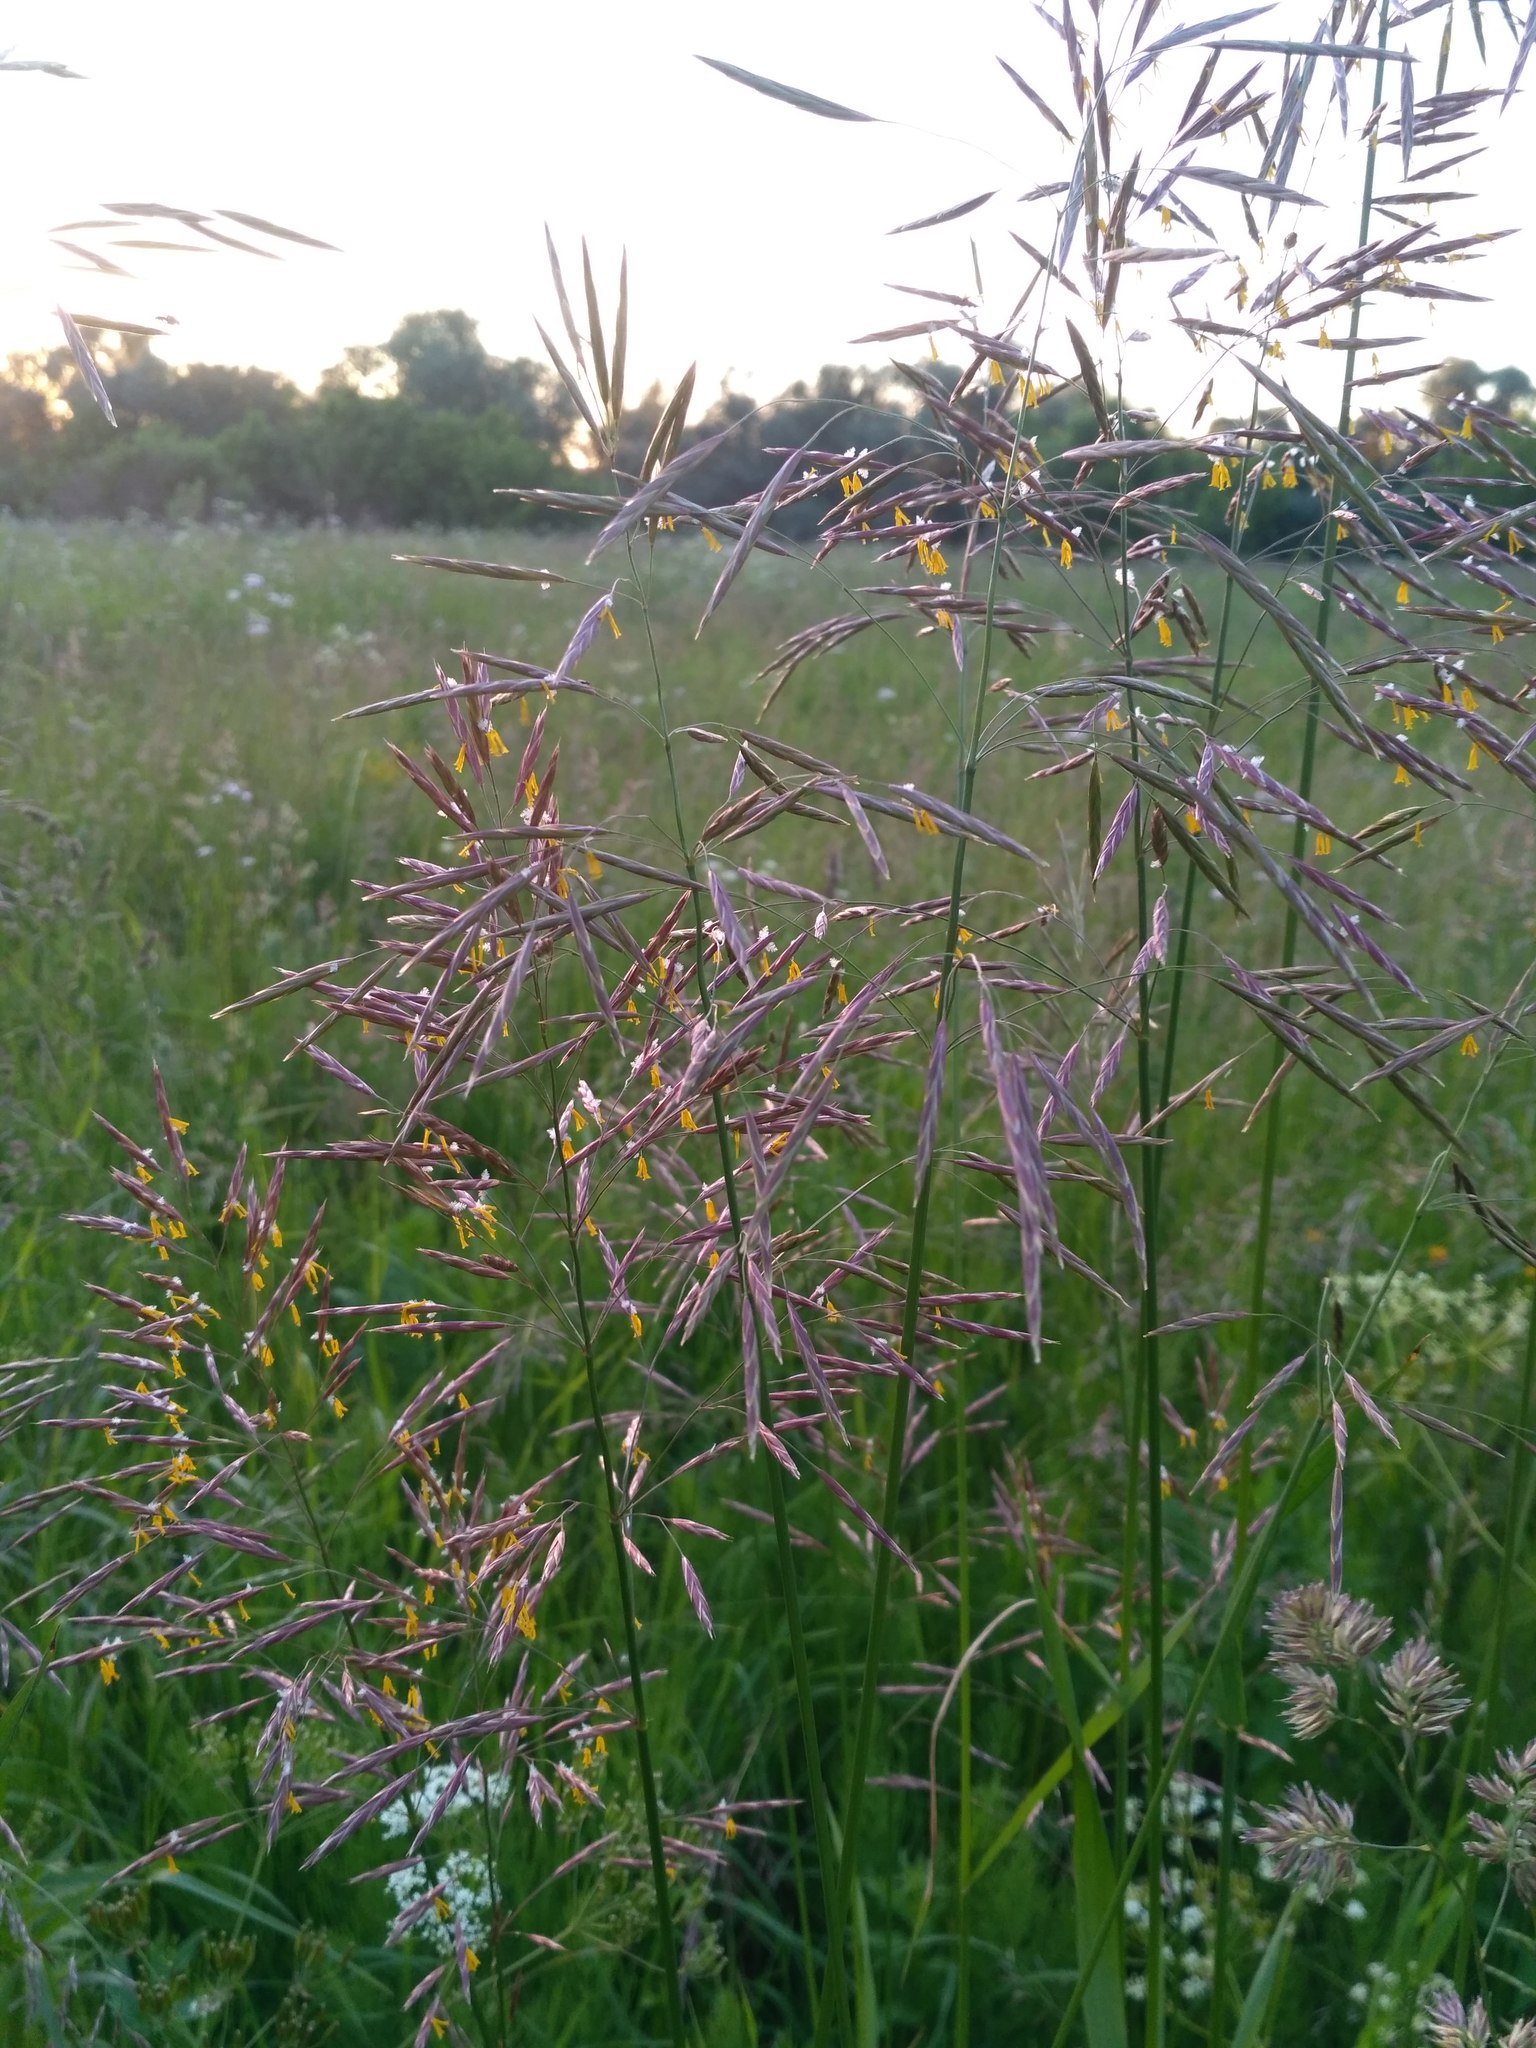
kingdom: Plantae
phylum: Tracheophyta
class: Liliopsida
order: Poales
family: Poaceae
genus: Bromus
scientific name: Bromus inermis
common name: Smooth brome
